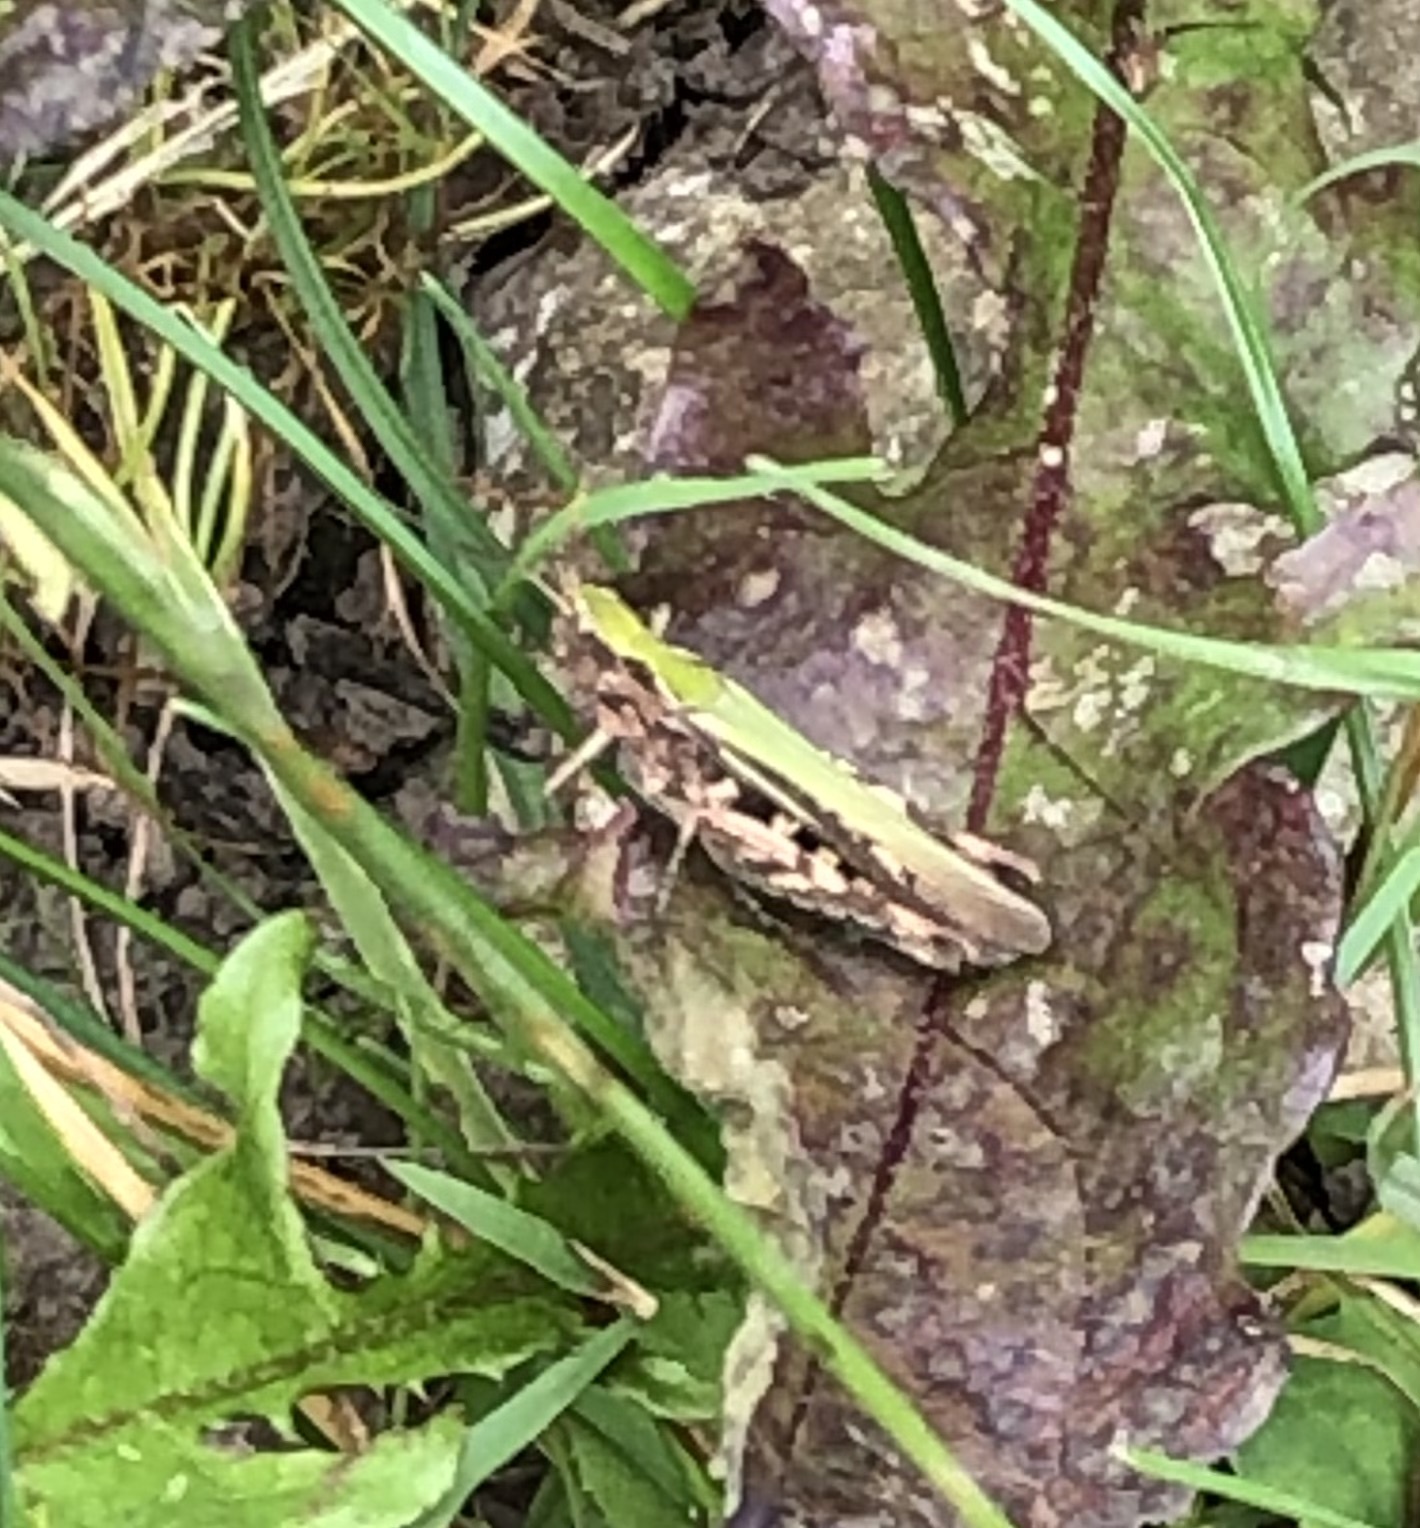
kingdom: Animalia
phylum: Arthropoda
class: Insecta
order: Orthoptera
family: Acrididae
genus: Chorthippus
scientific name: Chorthippus brunneus
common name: Field grasshopper
